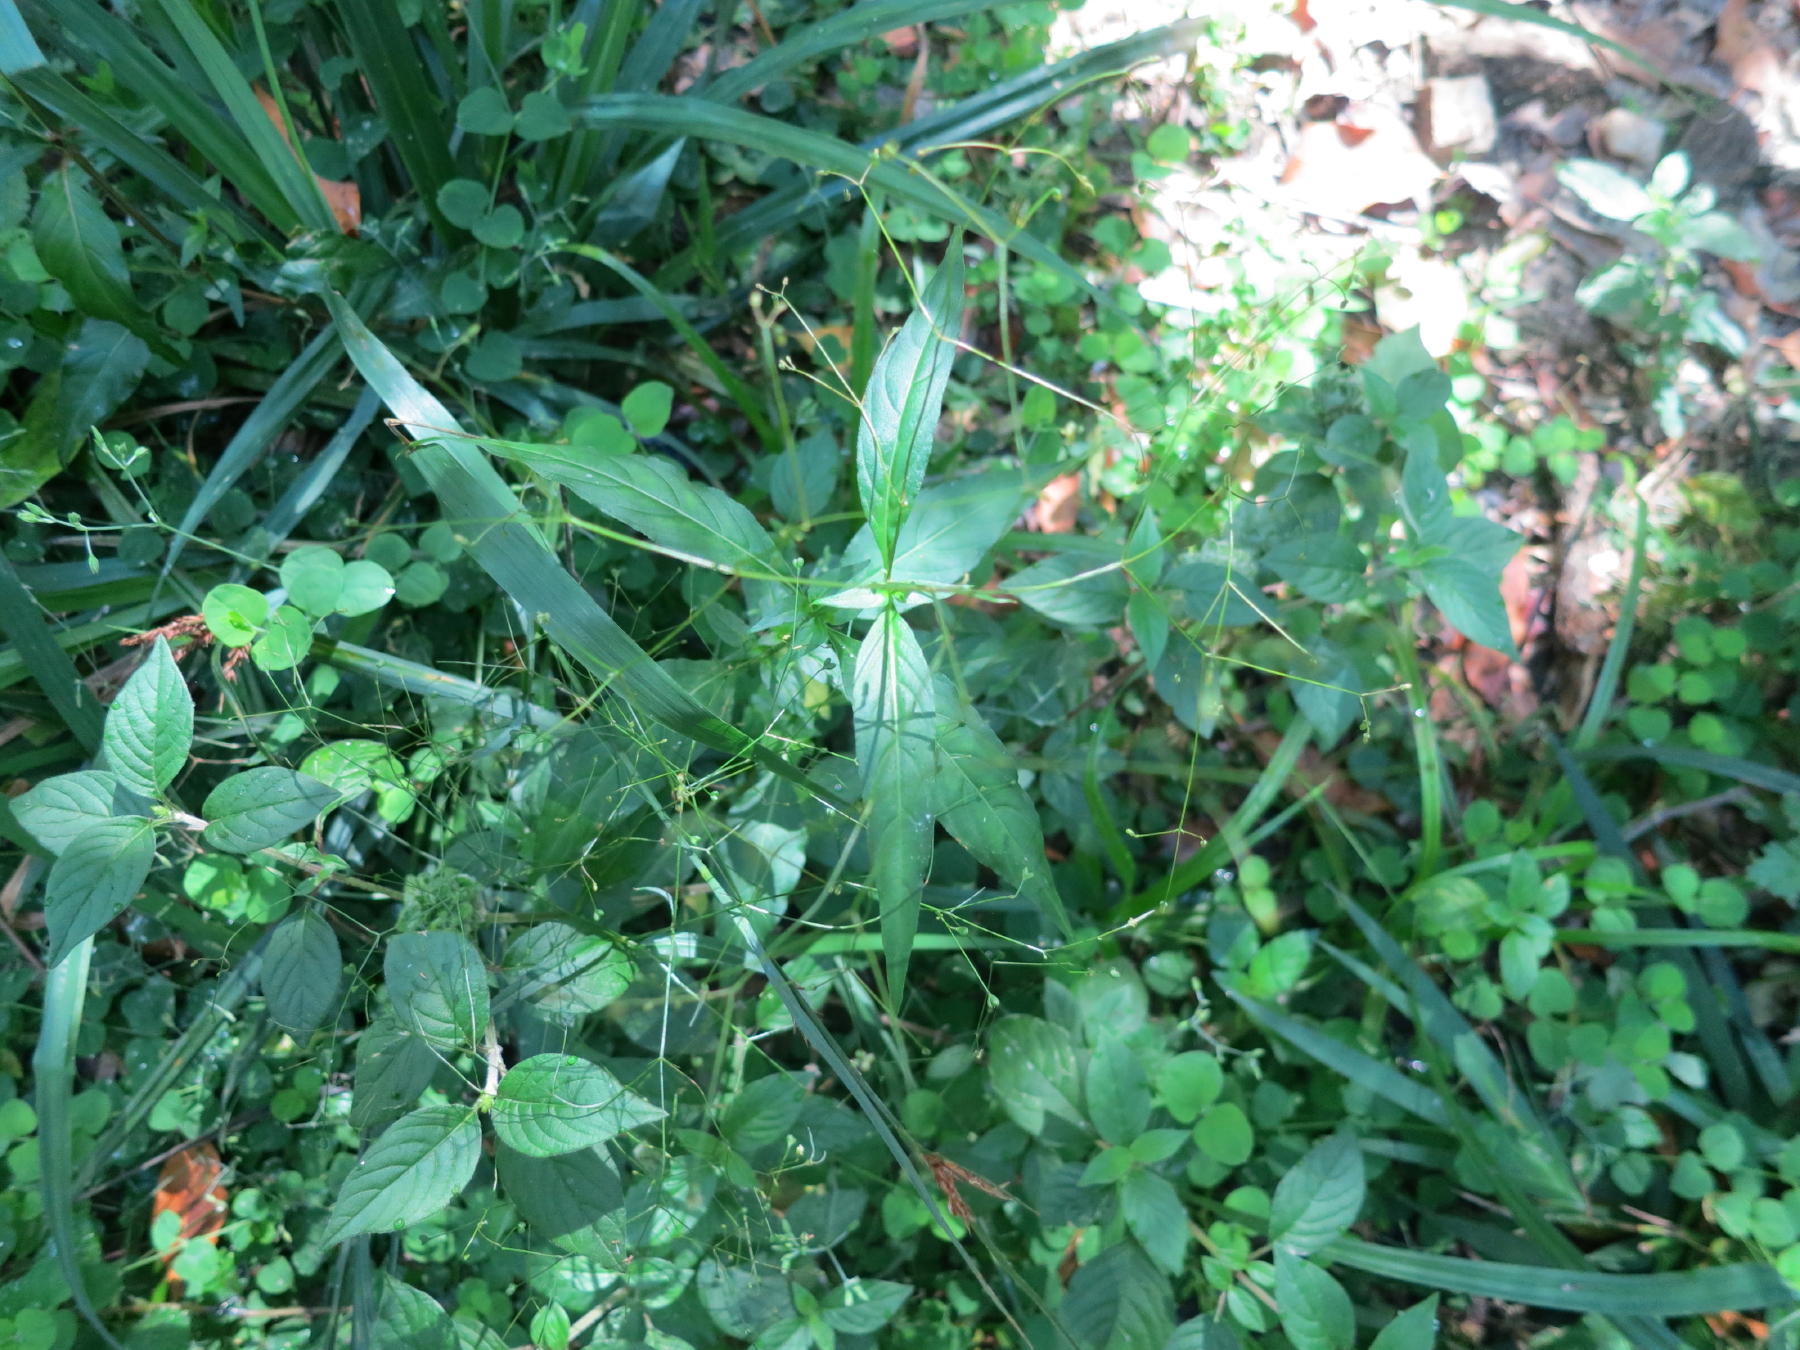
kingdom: Plantae
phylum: Tracheophyta
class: Magnoliopsida
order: Gentianales
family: Rubiaceae
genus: Galopina
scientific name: Galopina circaeoides
